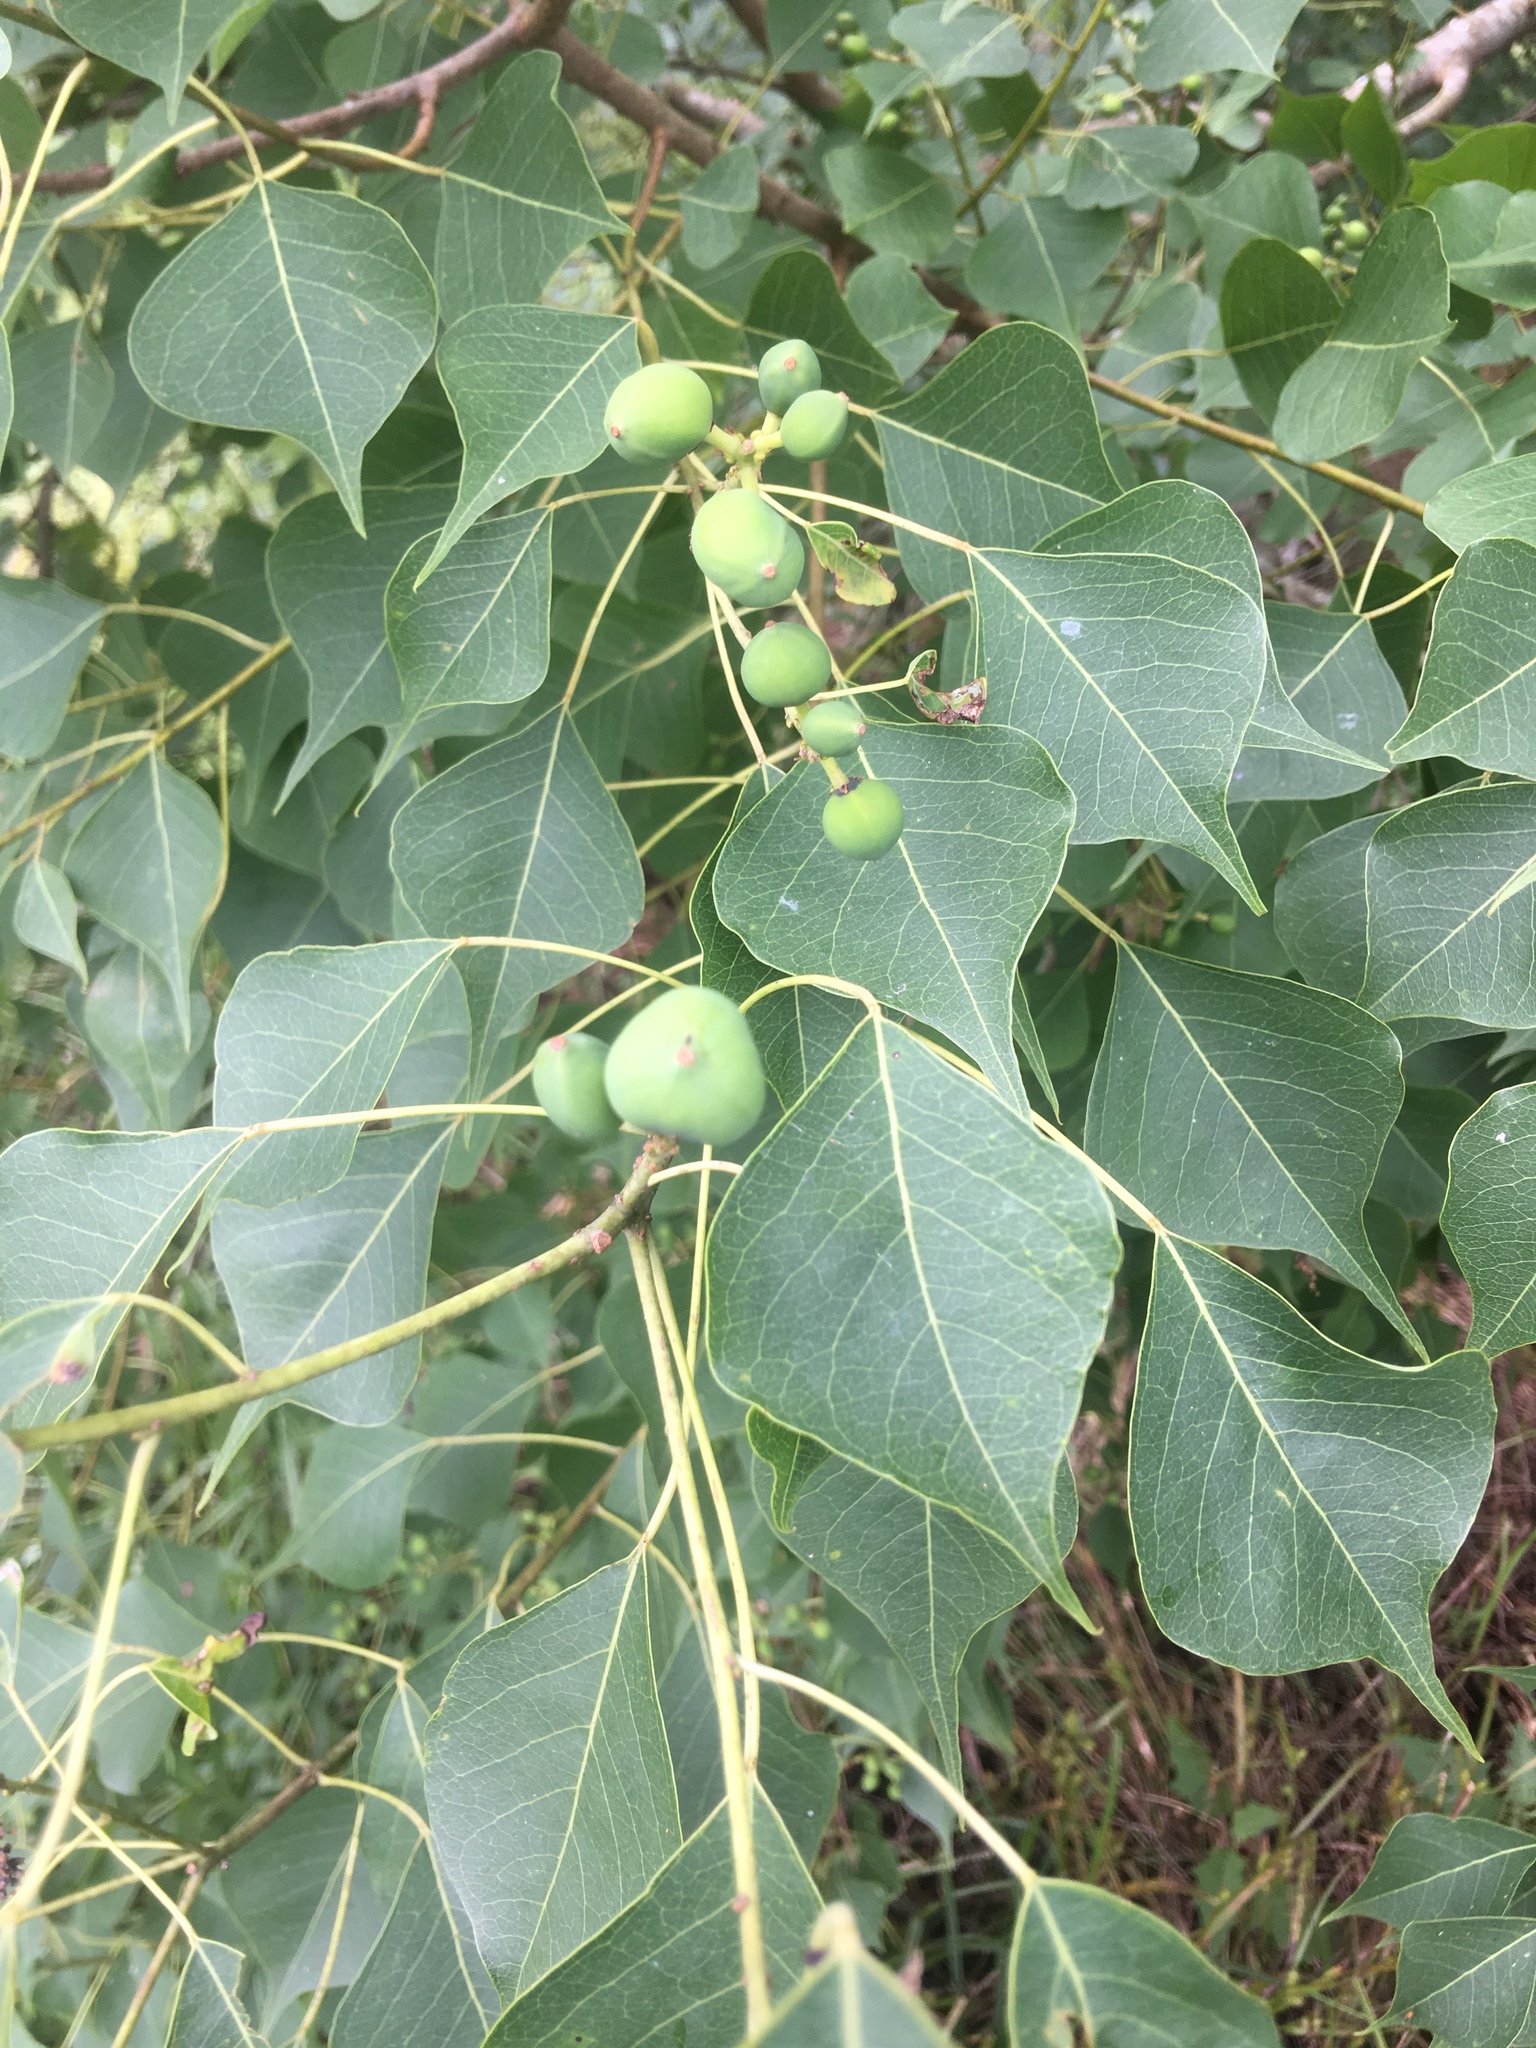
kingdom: Plantae
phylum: Tracheophyta
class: Magnoliopsida
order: Malpighiales
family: Euphorbiaceae
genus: Triadica
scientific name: Triadica sebifera
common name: Chinese tallow
